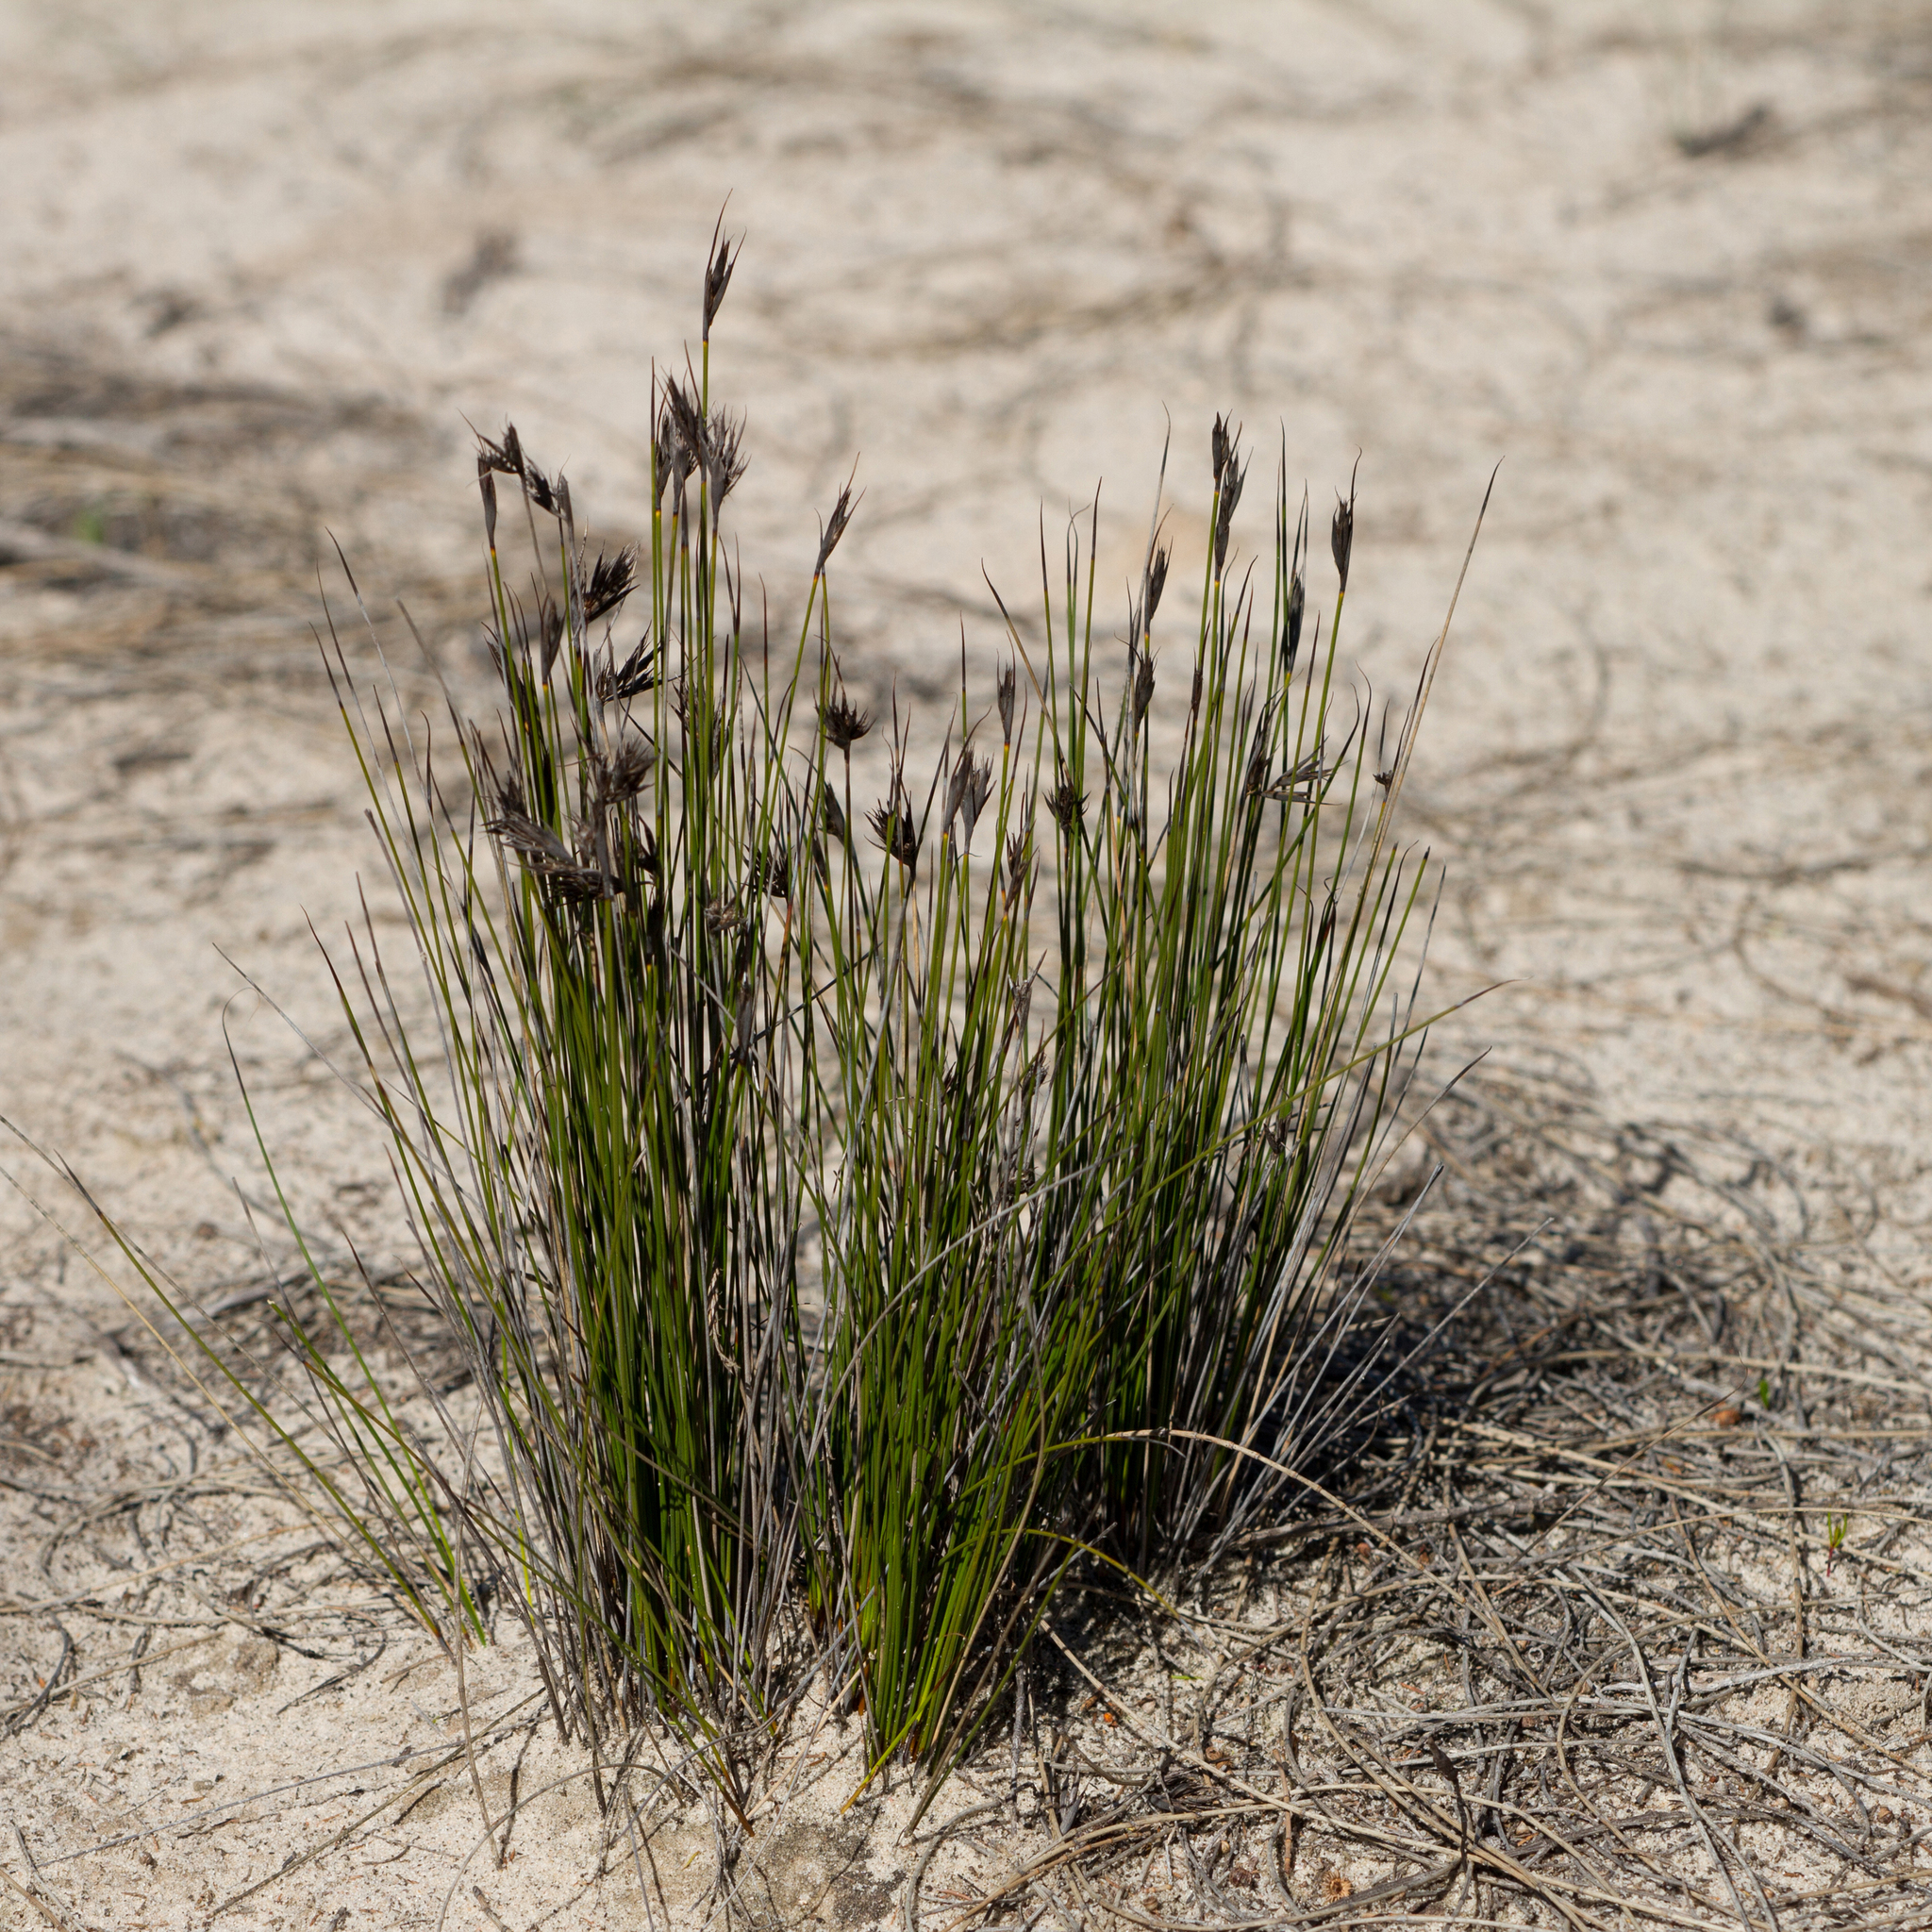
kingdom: Plantae
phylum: Tracheophyta
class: Liliopsida
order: Poales
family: Cyperaceae
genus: Lepidosperma
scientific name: Lepidosperma carphoides
